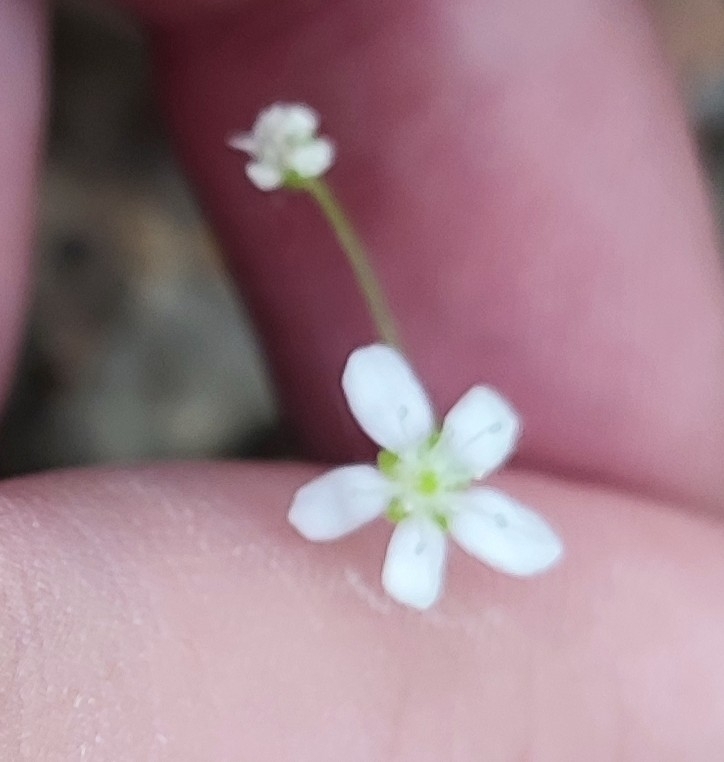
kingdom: Plantae
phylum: Tracheophyta
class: Magnoliopsida
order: Caryophyllales
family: Caryophyllaceae
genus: Moehringia
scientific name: Moehringia lateriflora
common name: Blunt-leaved sandwort
